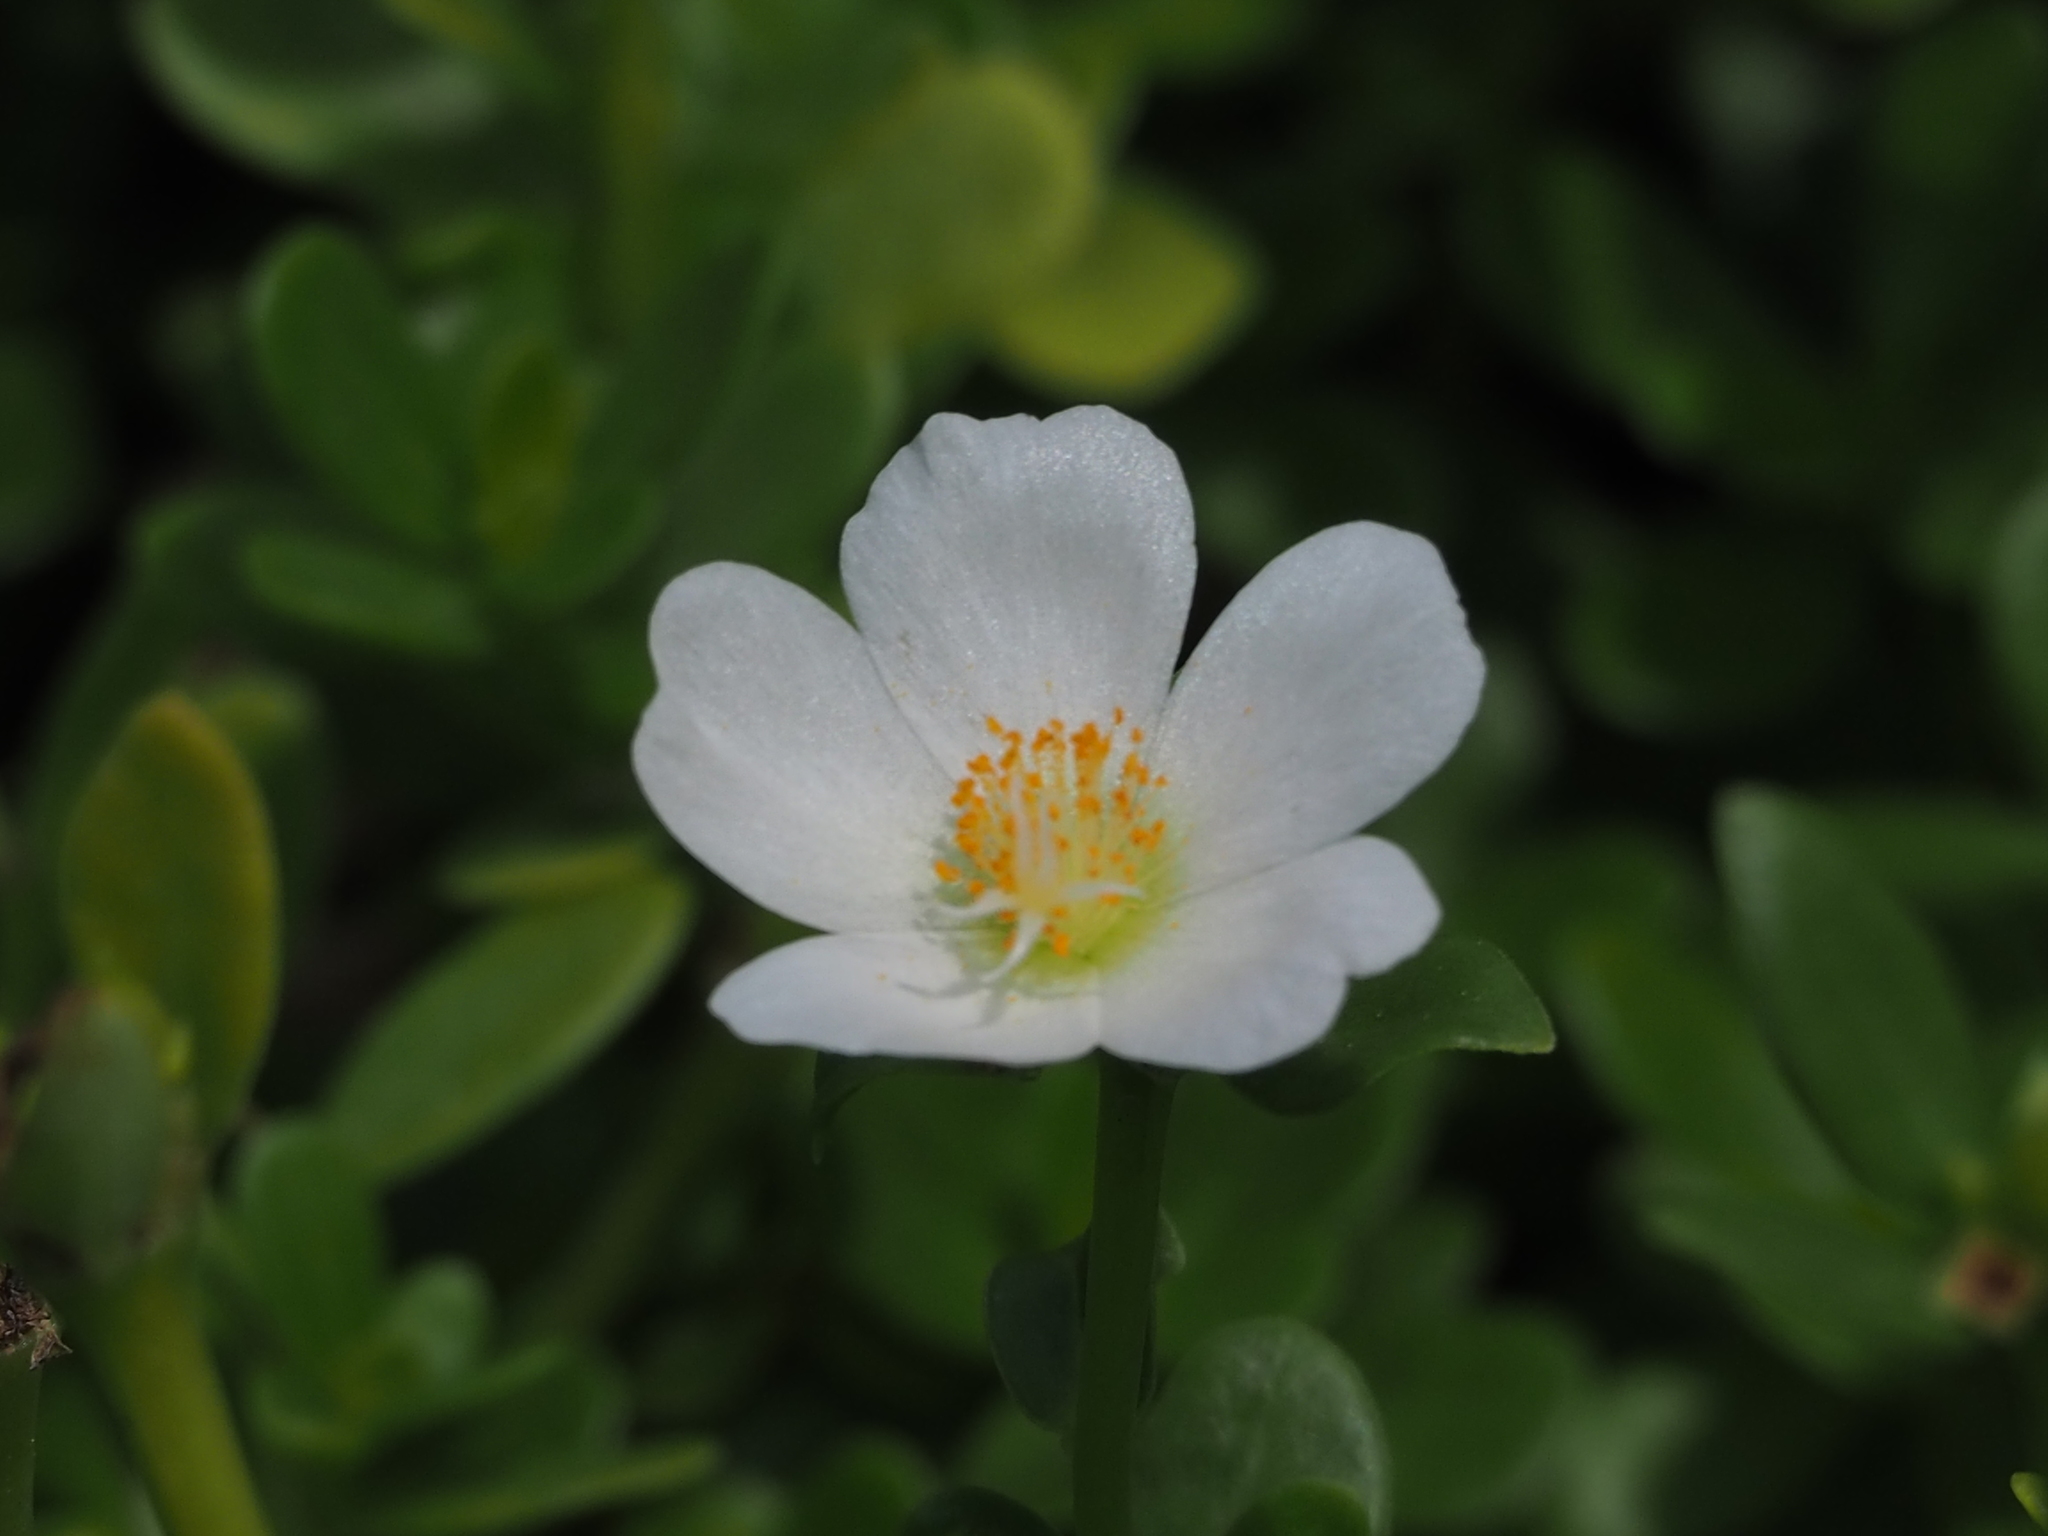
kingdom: Plantae
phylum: Tracheophyta
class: Magnoliopsida
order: Caryophyllales
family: Portulacaceae
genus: Portulaca
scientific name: Portulaca umbraticola
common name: Wingpod purslane
